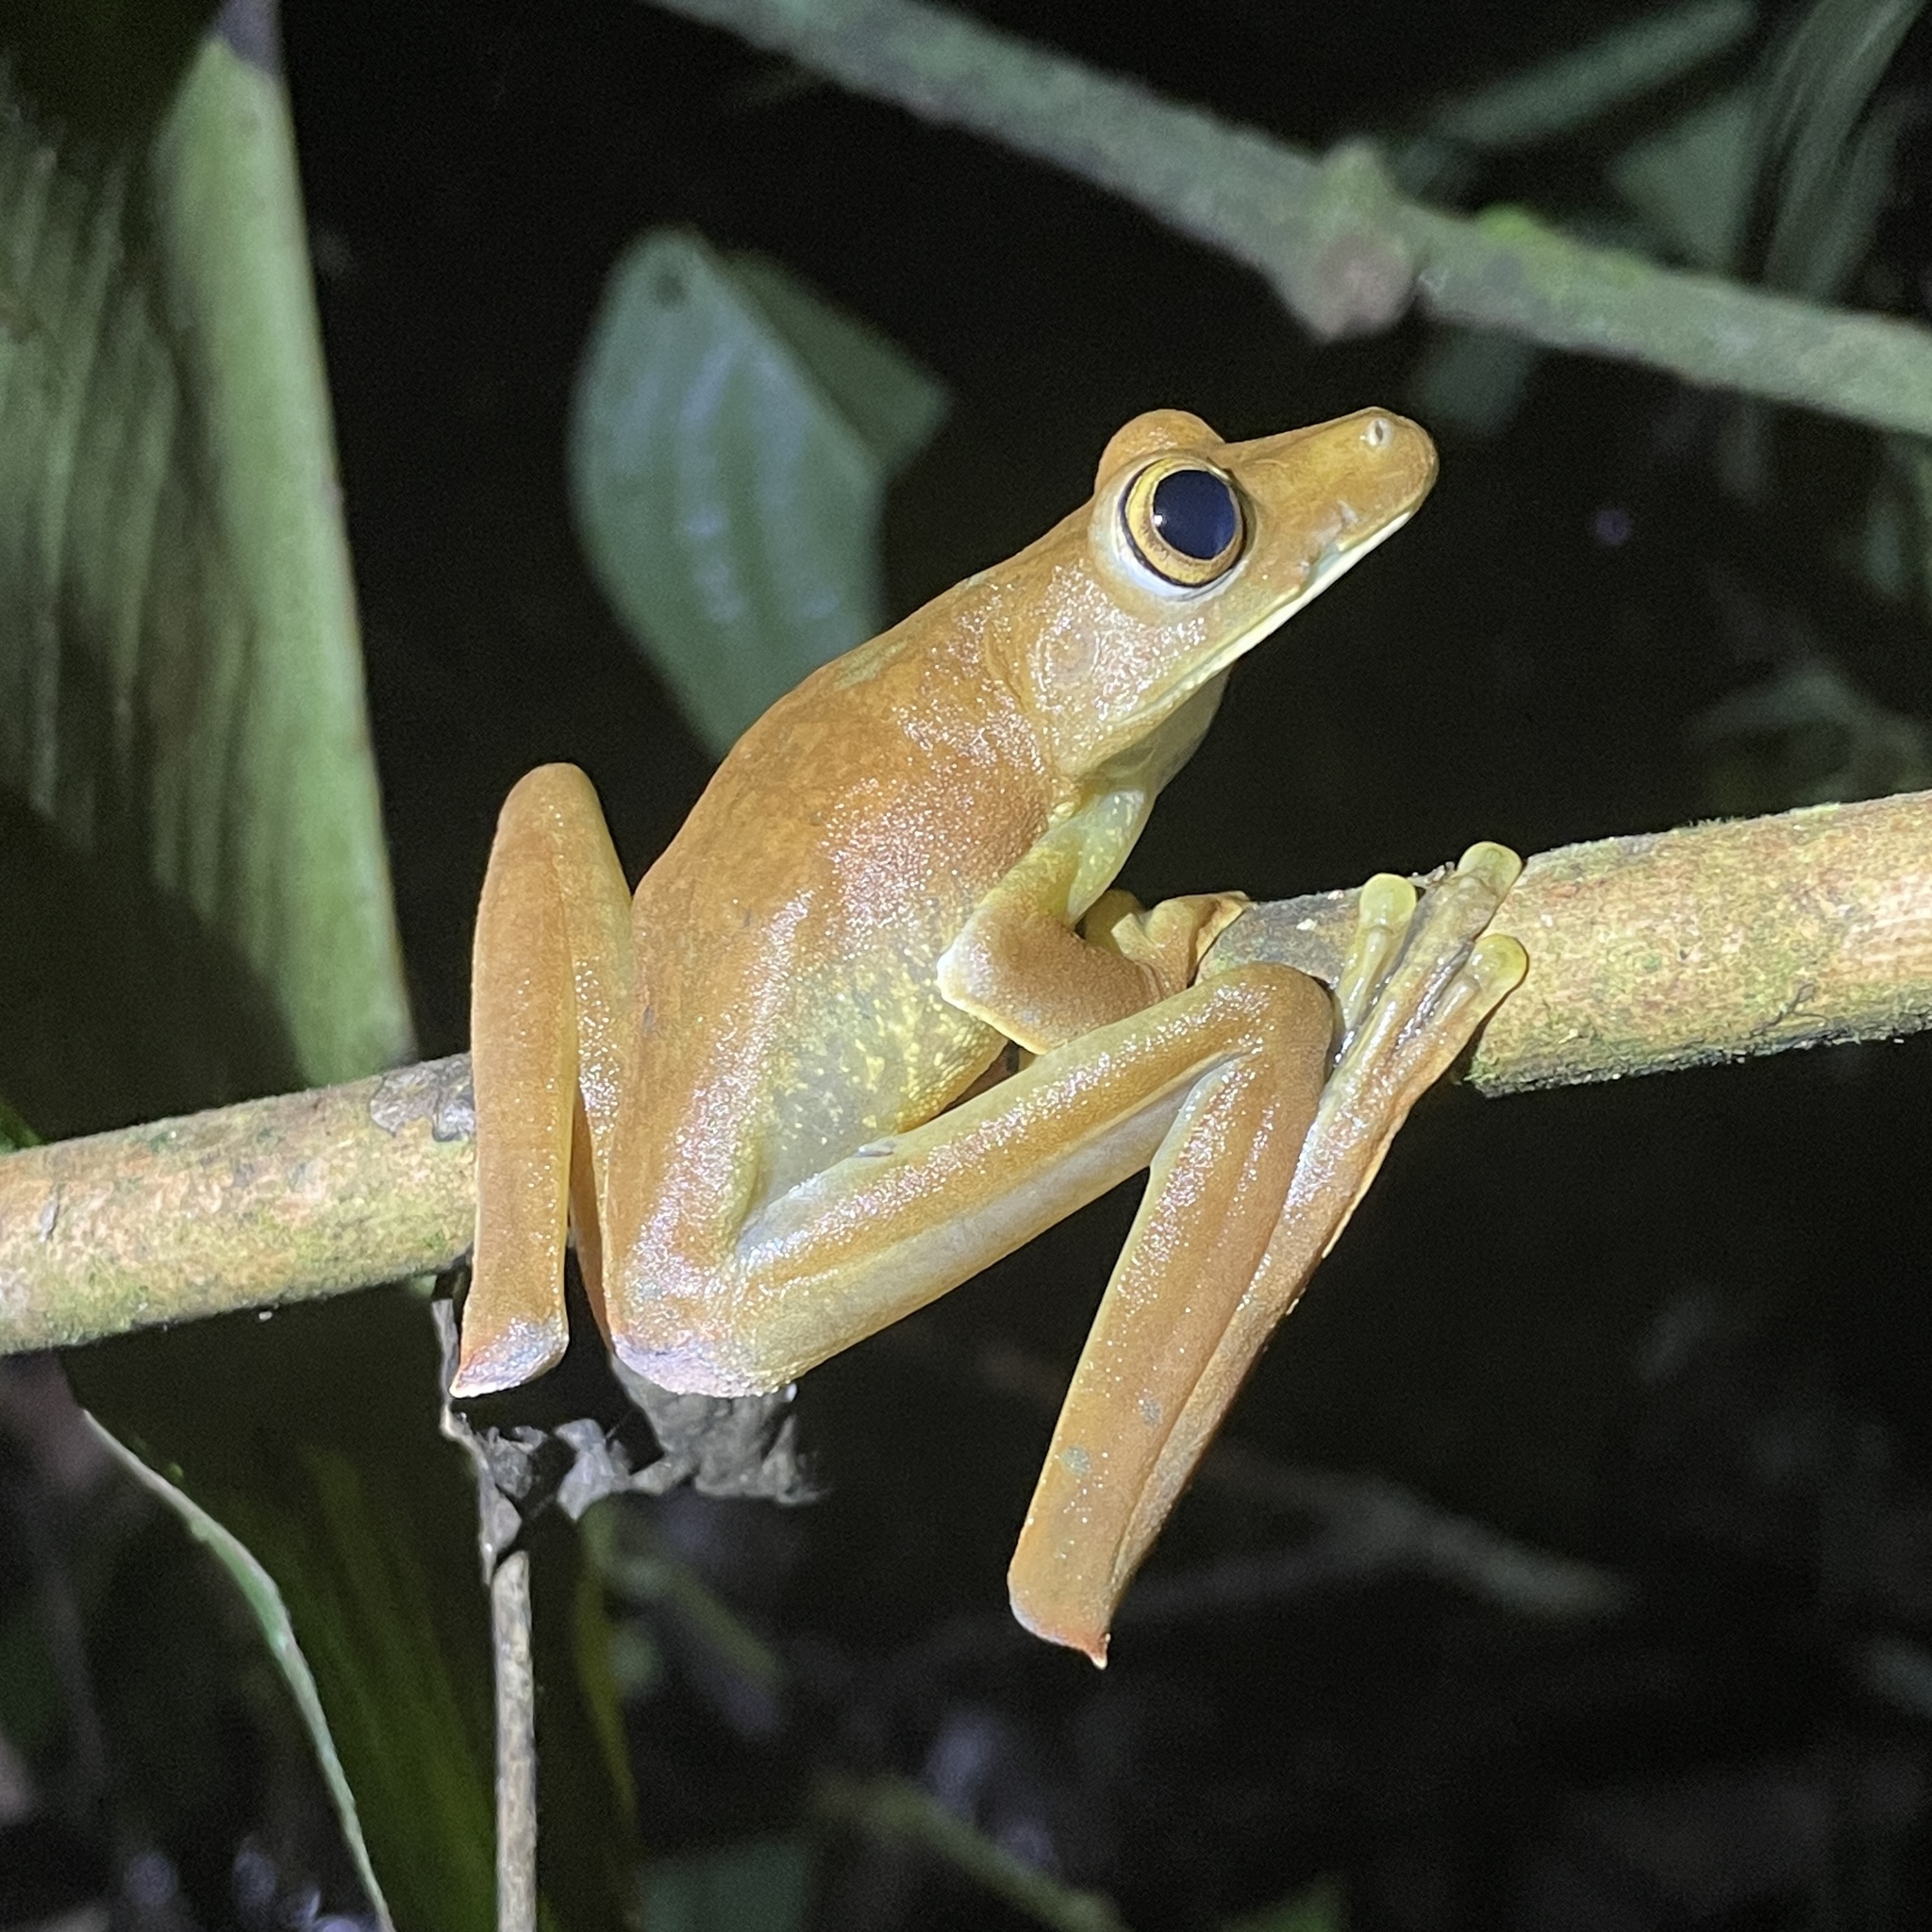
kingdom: Animalia
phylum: Chordata
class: Amphibia
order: Anura
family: Hylidae
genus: Boana
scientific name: Boana boans
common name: Giant gladiator treefrog
